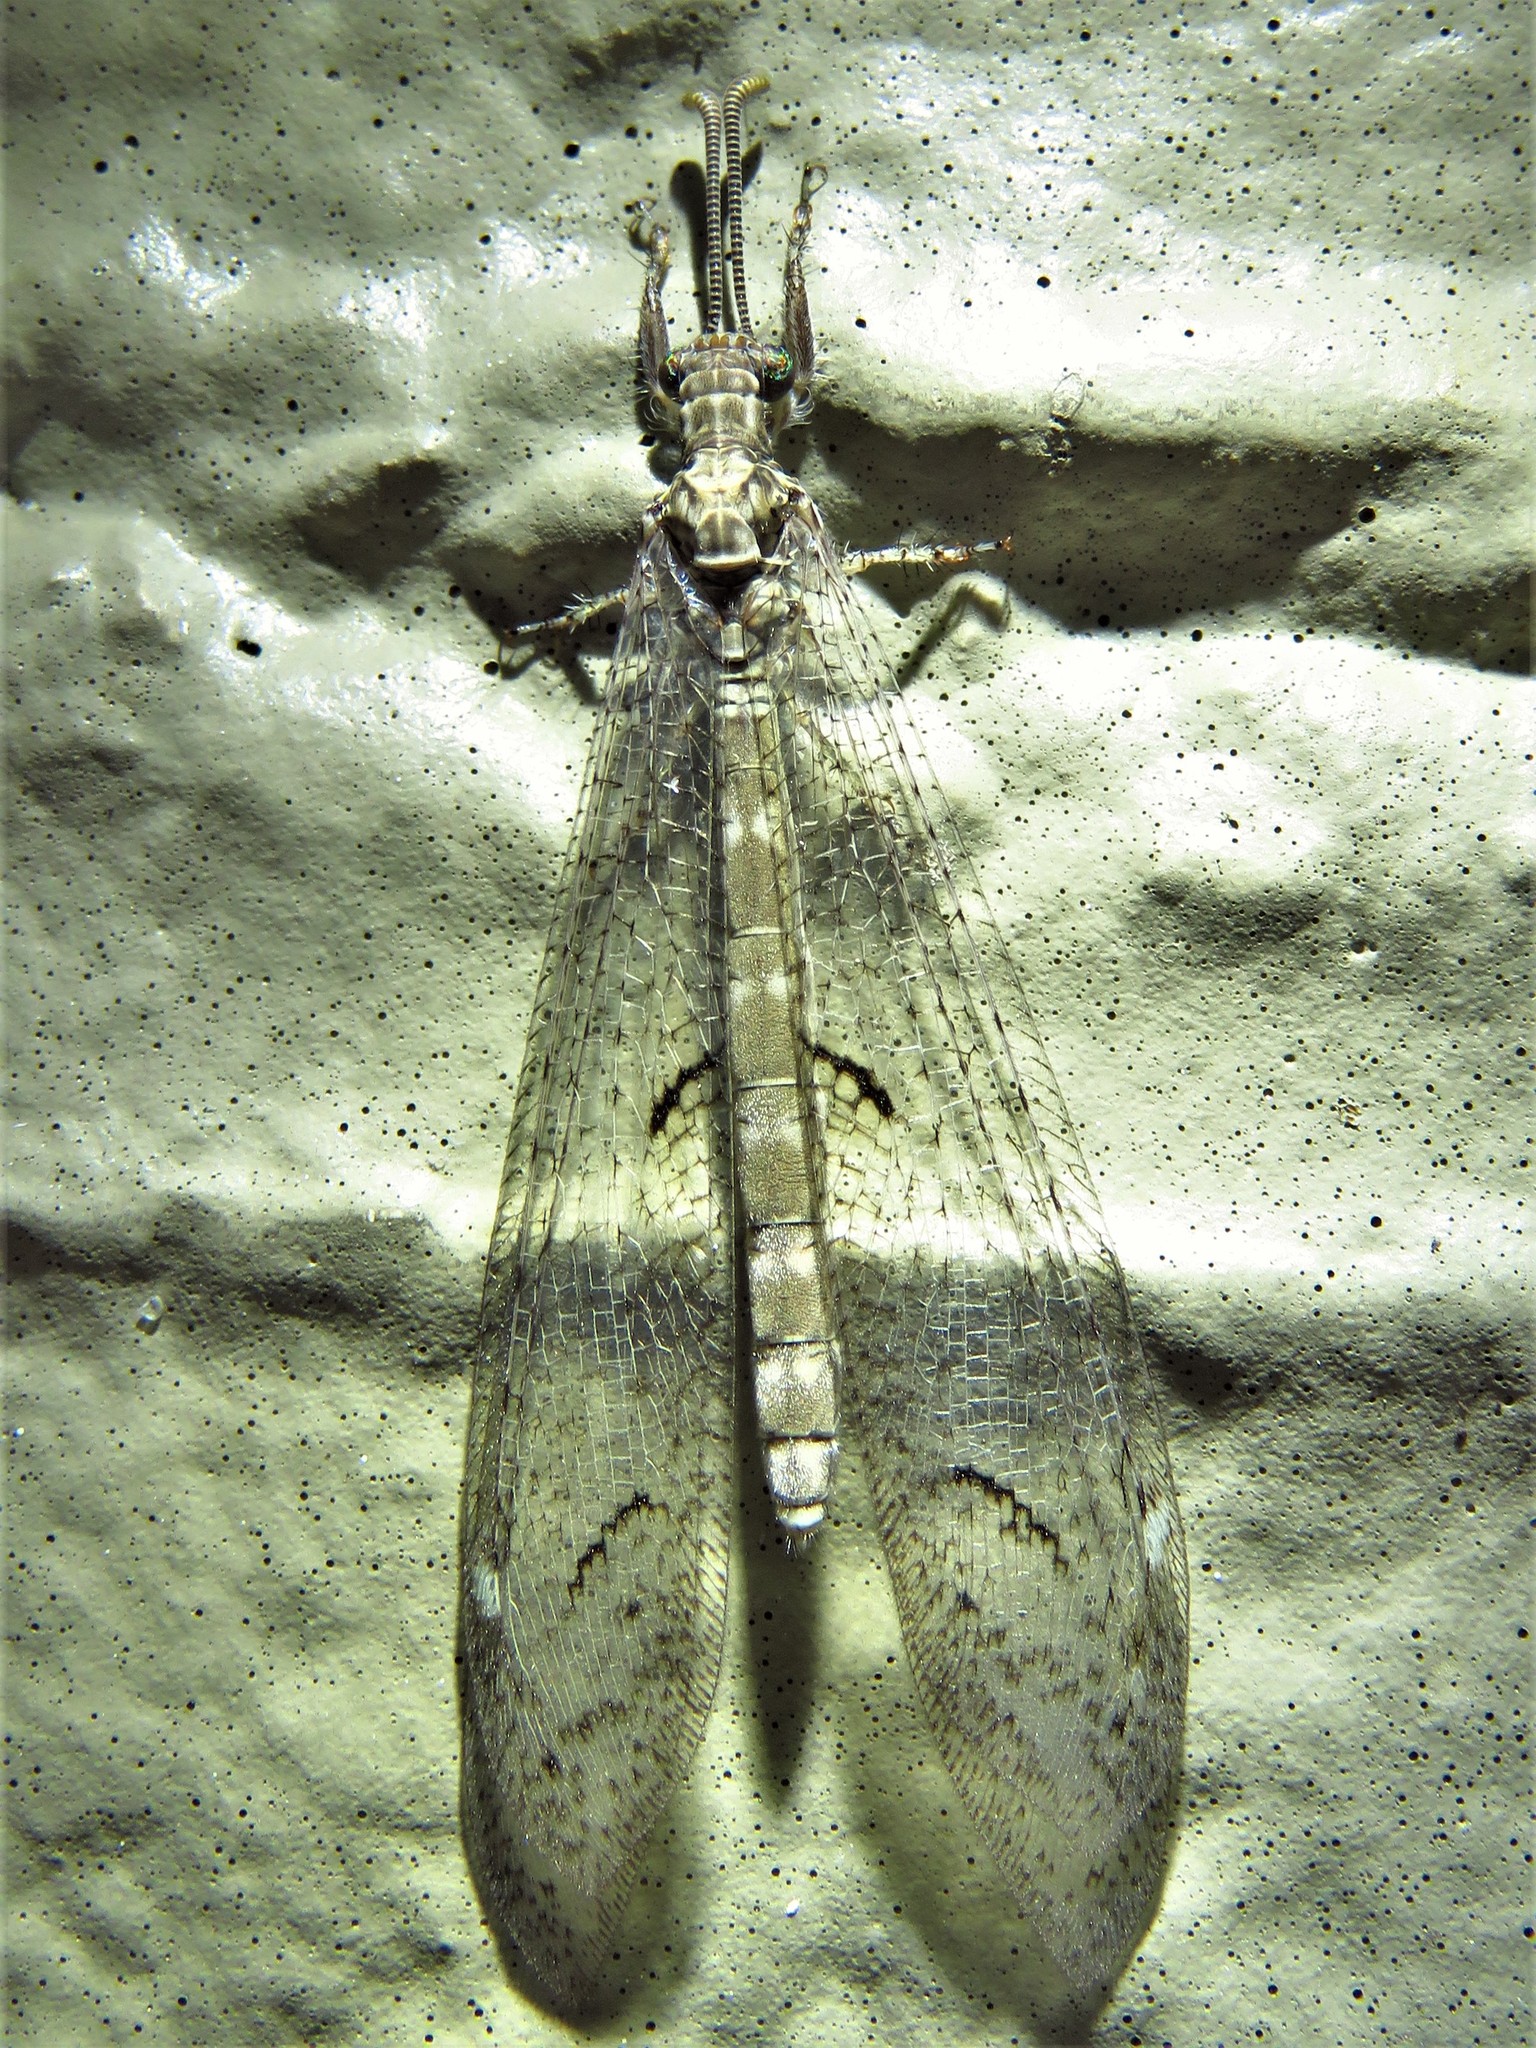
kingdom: Animalia
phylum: Arthropoda
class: Insecta
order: Neuroptera
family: Myrmeleontidae
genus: Euptilon
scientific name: Euptilon ornatum
